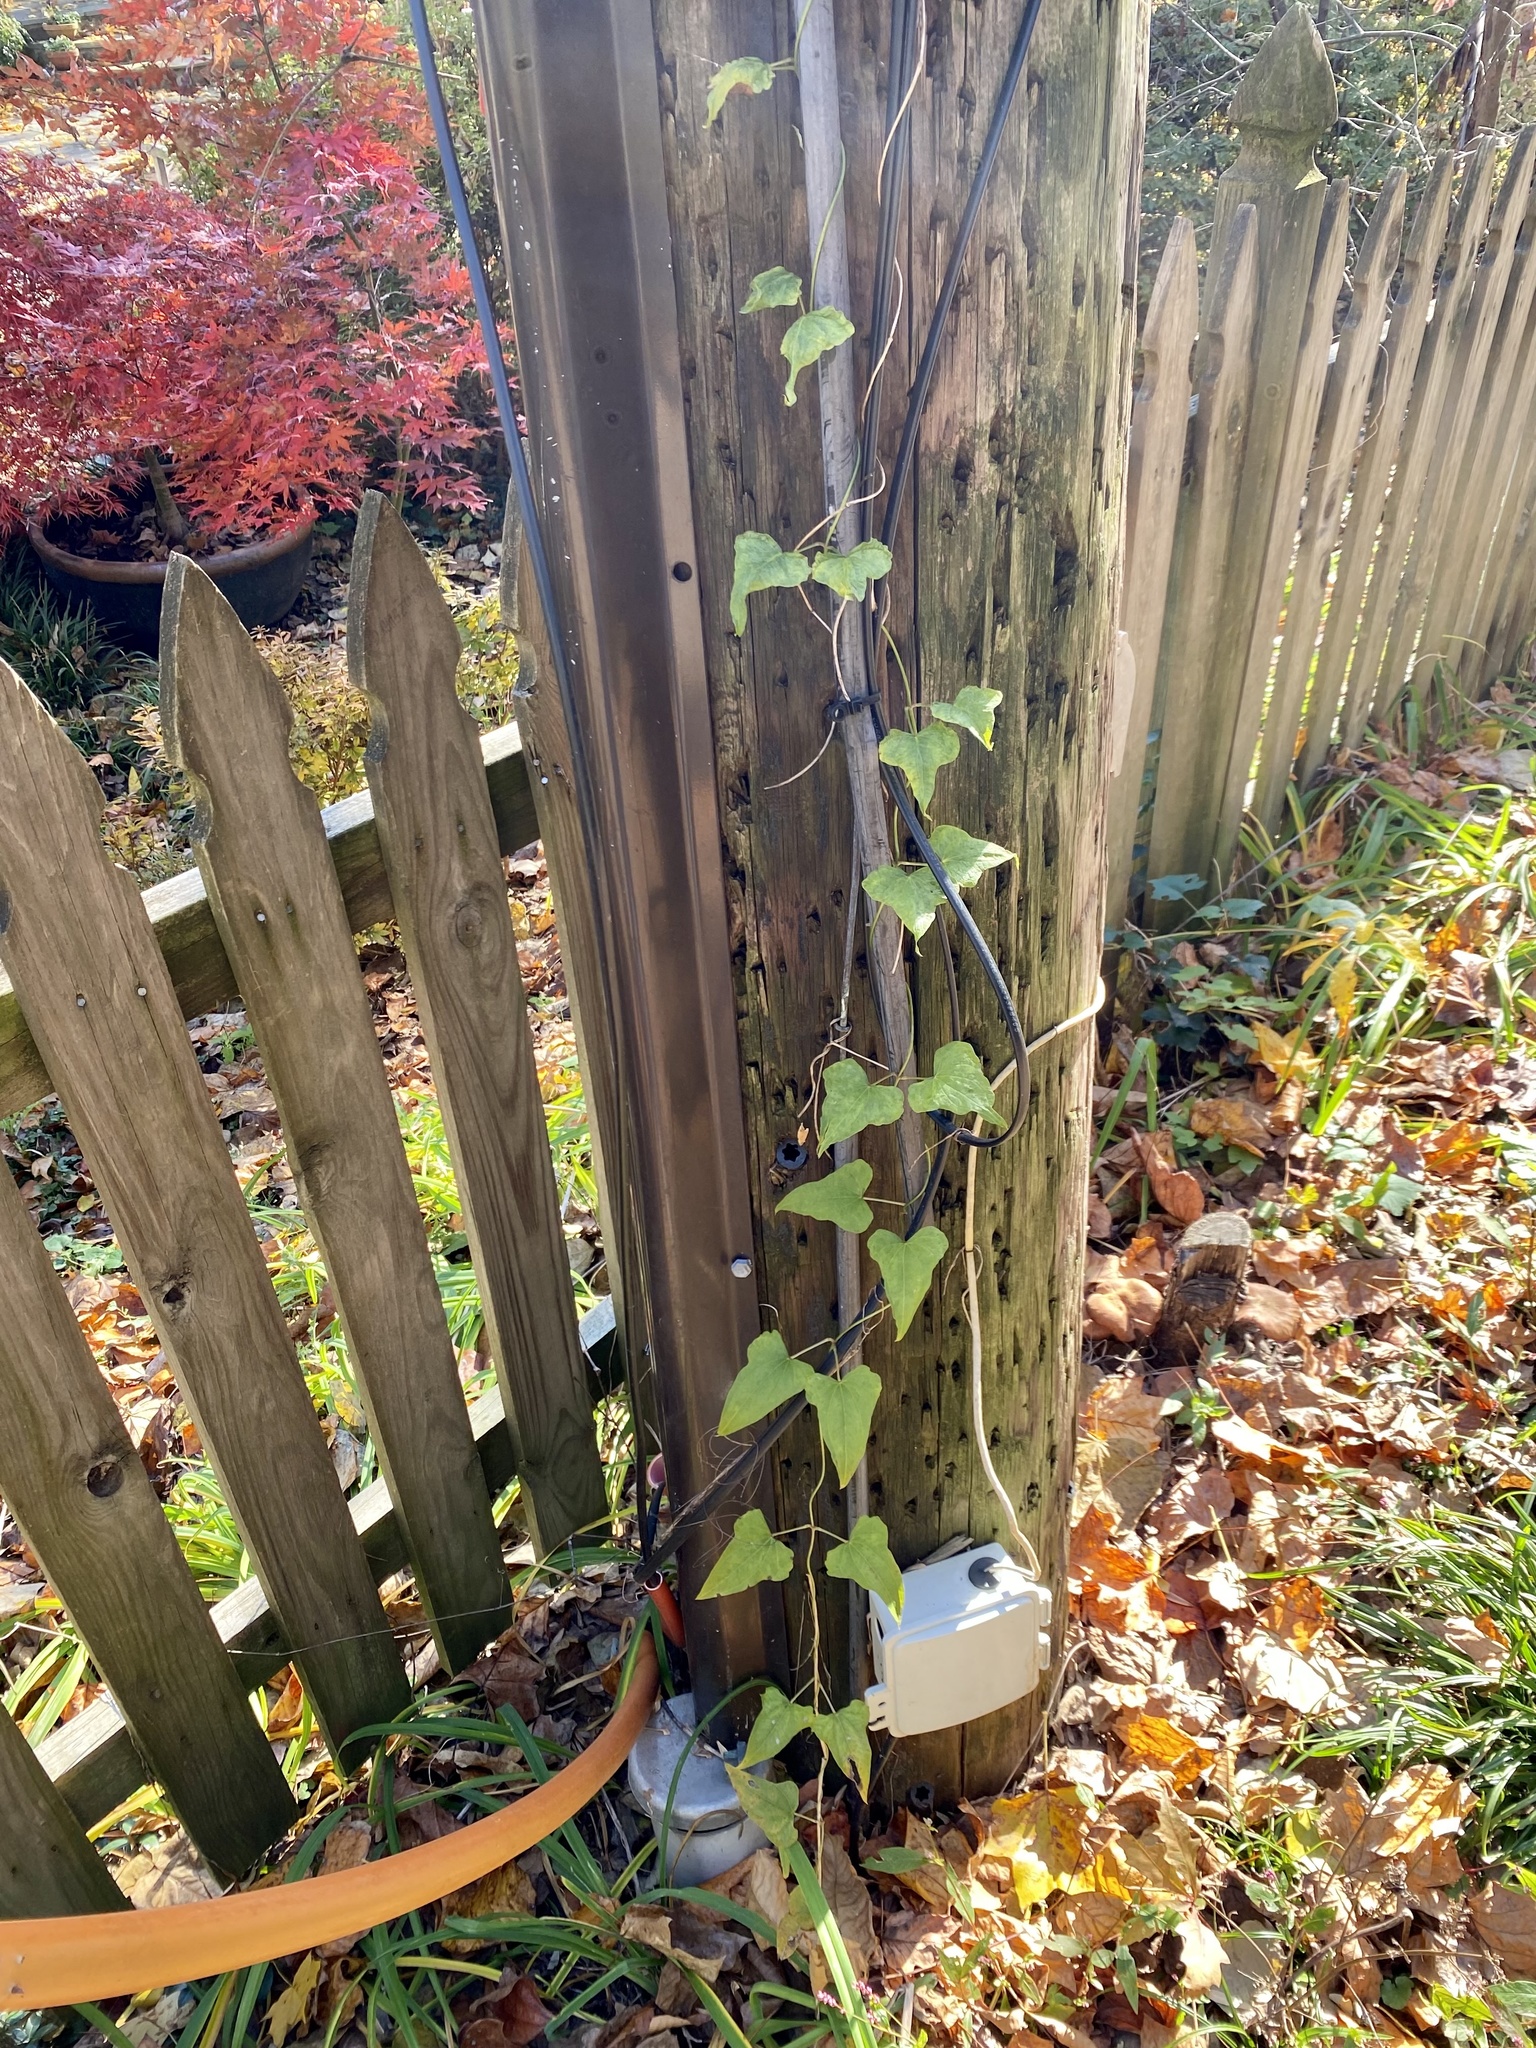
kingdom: Plantae
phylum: Tracheophyta
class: Liliopsida
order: Dioscoreales
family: Dioscoreaceae
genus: Dioscorea
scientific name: Dioscorea polystachya
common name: Chinese yam
